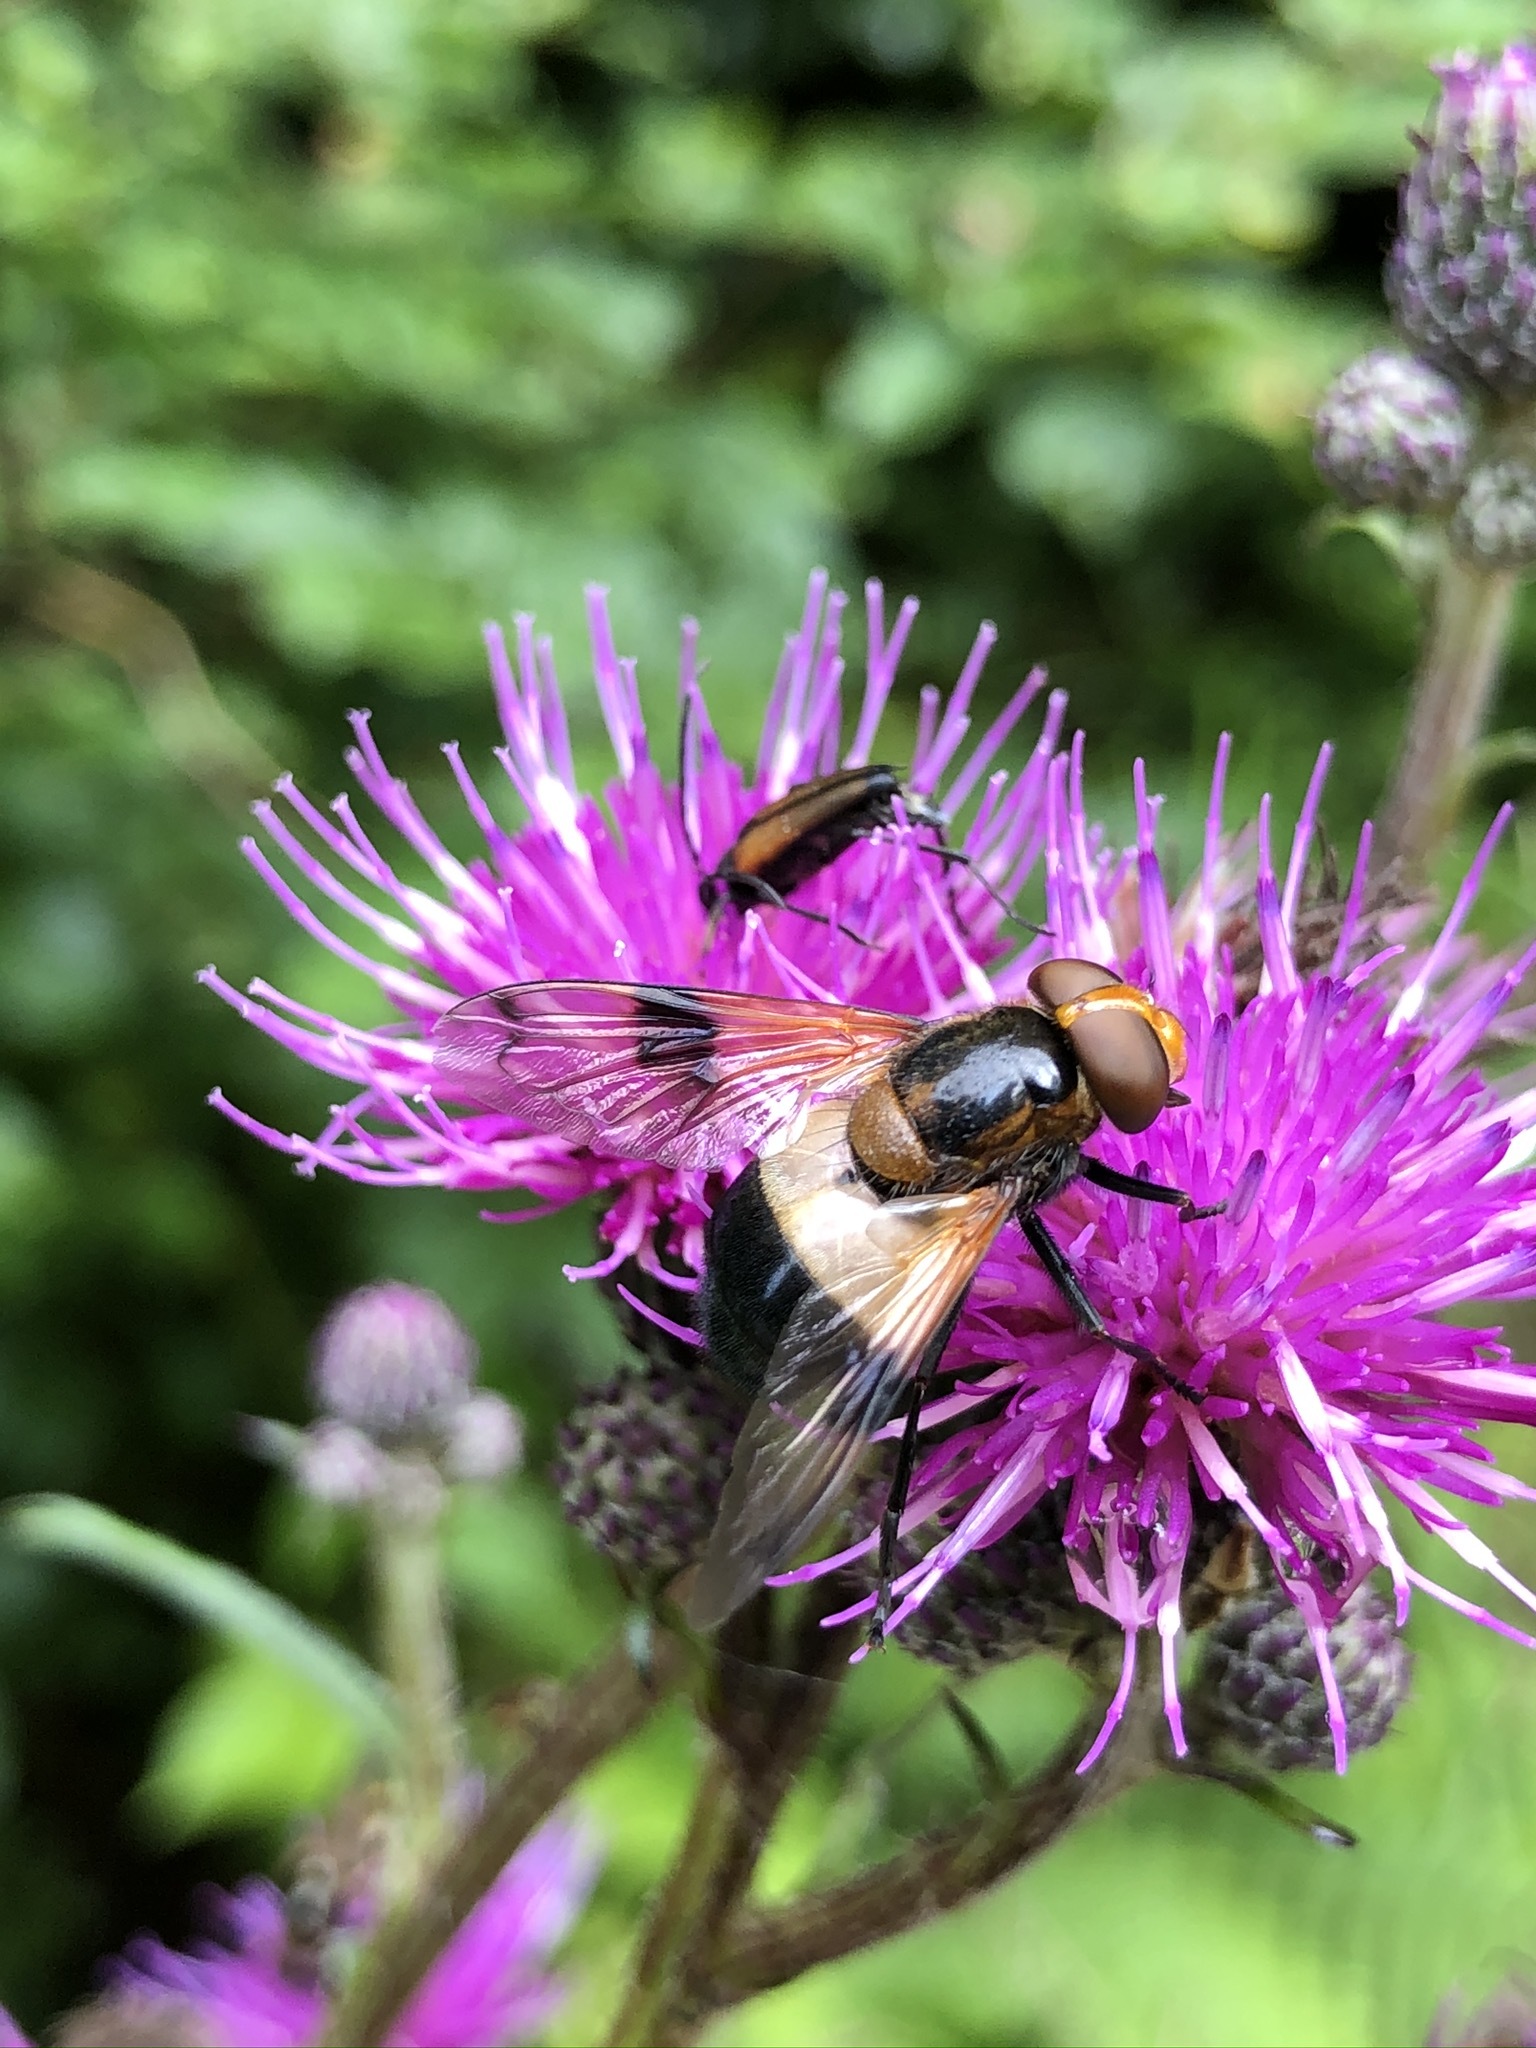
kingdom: Animalia
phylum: Arthropoda
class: Insecta
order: Diptera
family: Syrphidae
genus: Volucella
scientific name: Volucella pellucens
